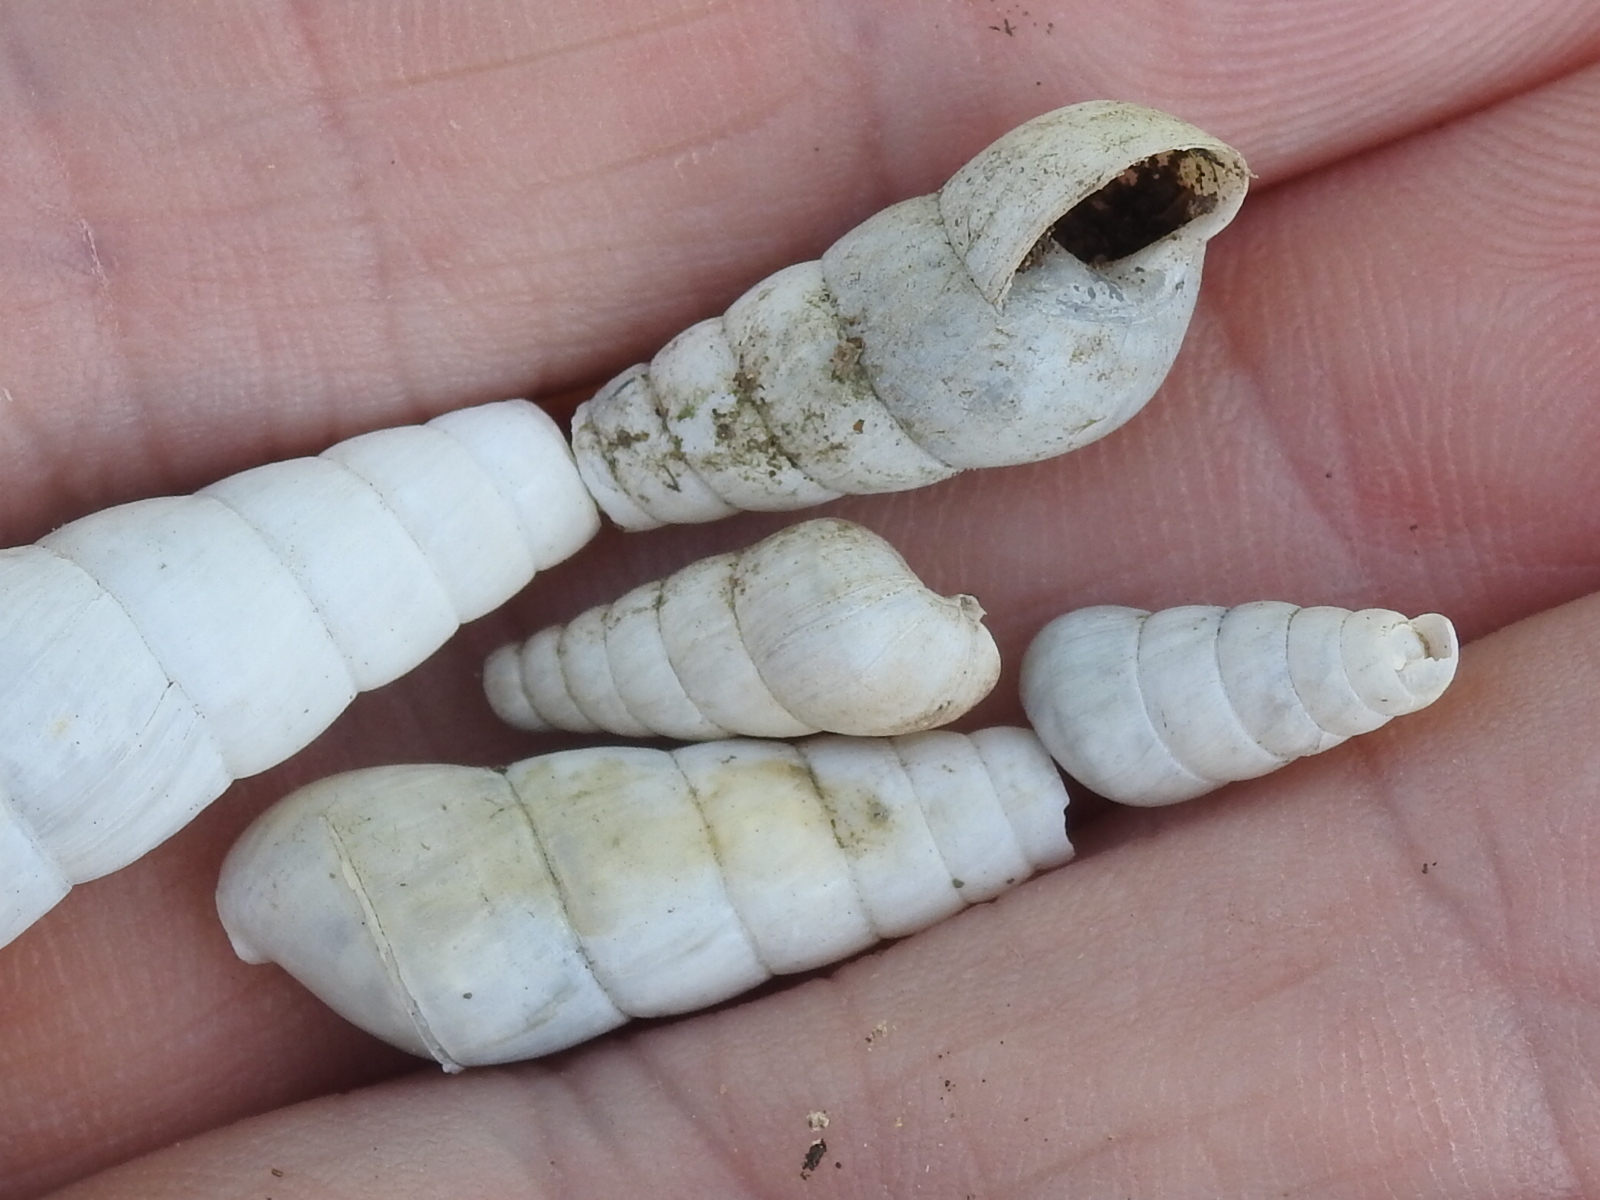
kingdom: Animalia
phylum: Mollusca
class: Gastropoda
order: Stylommatophora
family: Achatinidae
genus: Rumina
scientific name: Rumina decollata
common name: Decollate snail
